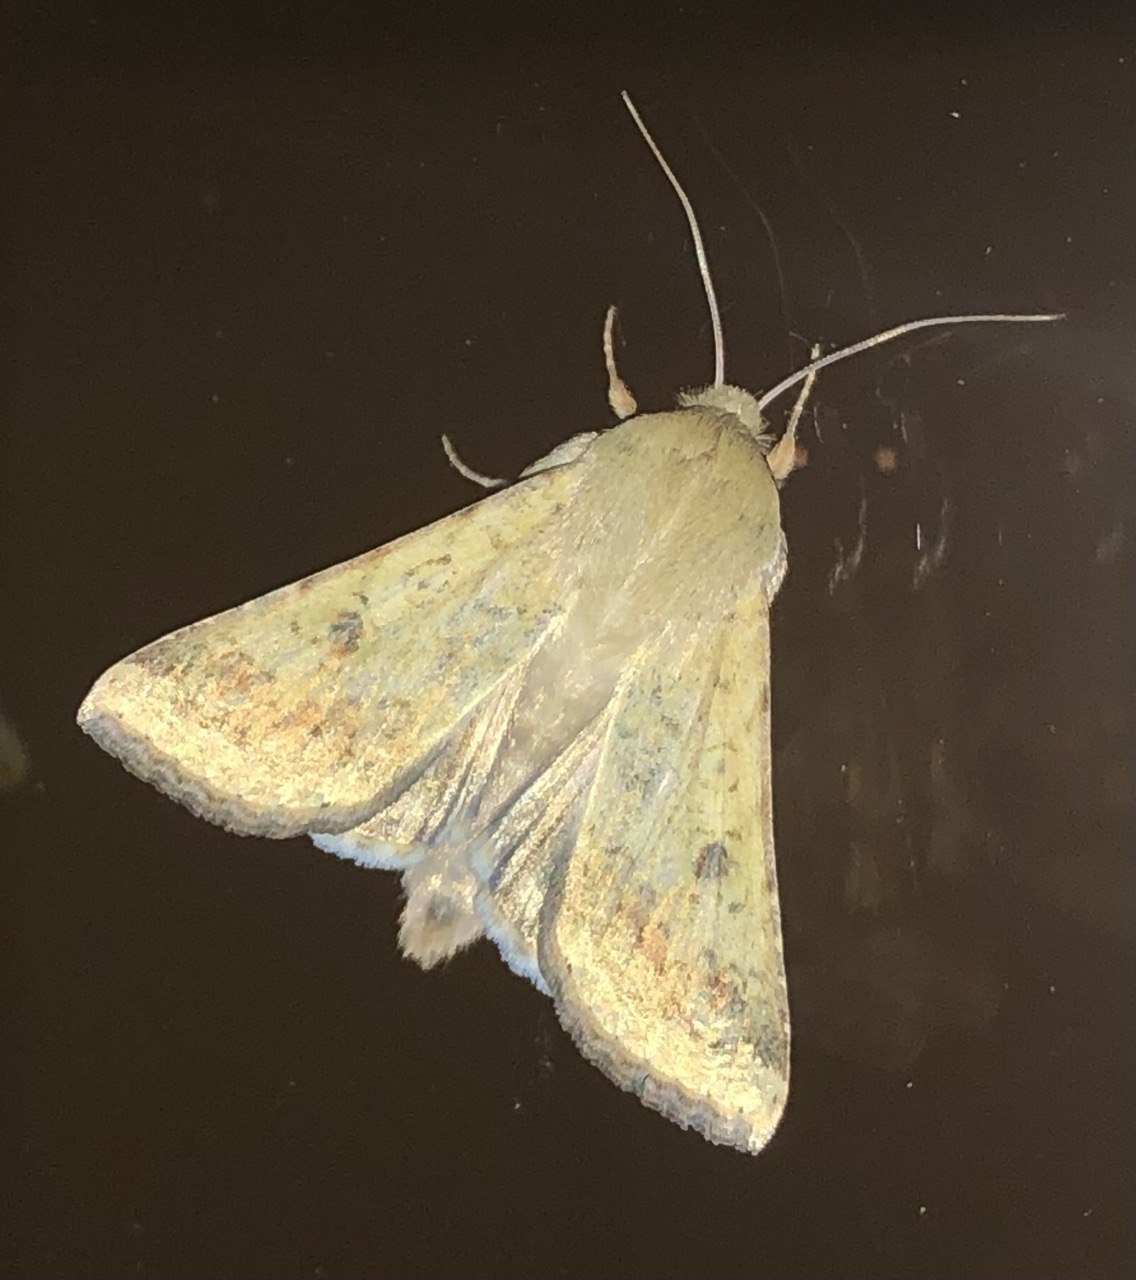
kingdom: Animalia
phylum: Arthropoda
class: Insecta
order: Lepidoptera
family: Noctuidae
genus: Helicoverpa
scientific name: Helicoverpa armigera
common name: Cotton bollworm
